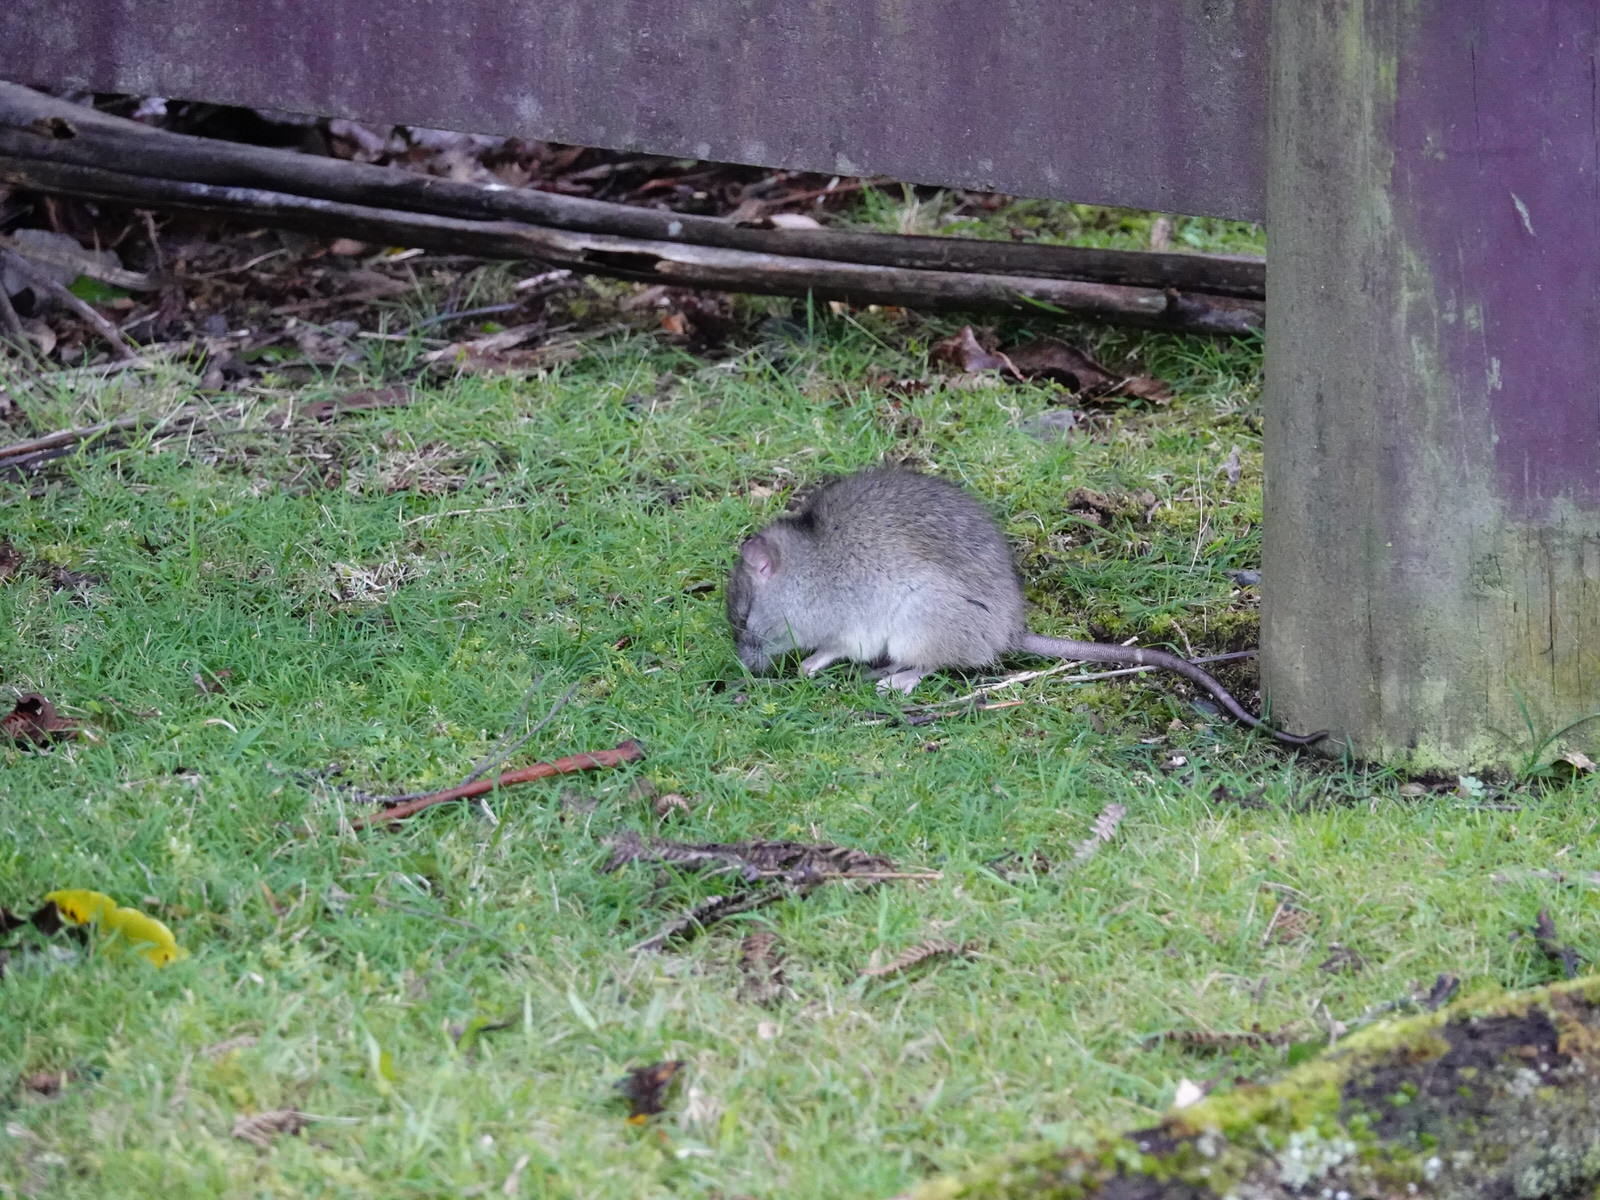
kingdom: Animalia
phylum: Chordata
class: Mammalia
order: Rodentia
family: Muridae
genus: Rattus
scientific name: Rattus rattus
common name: Black rat
